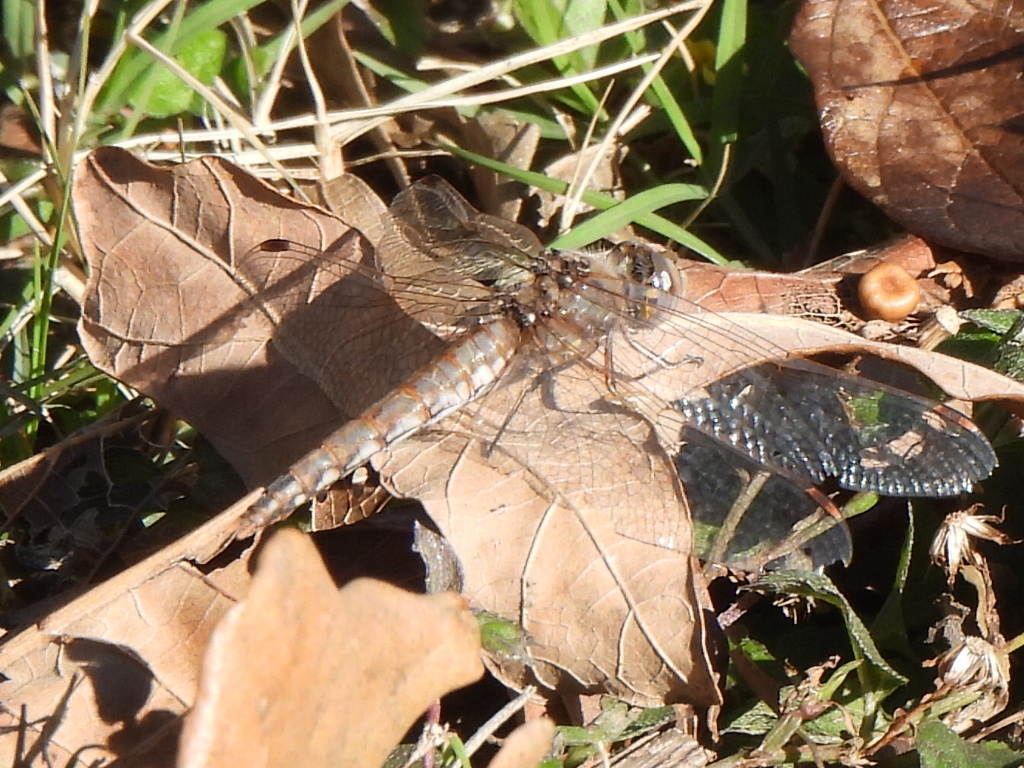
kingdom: Animalia
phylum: Arthropoda
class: Insecta
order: Odonata
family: Libellulidae
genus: Sympetrum
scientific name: Sympetrum corruptum
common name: Variegated meadowhawk
